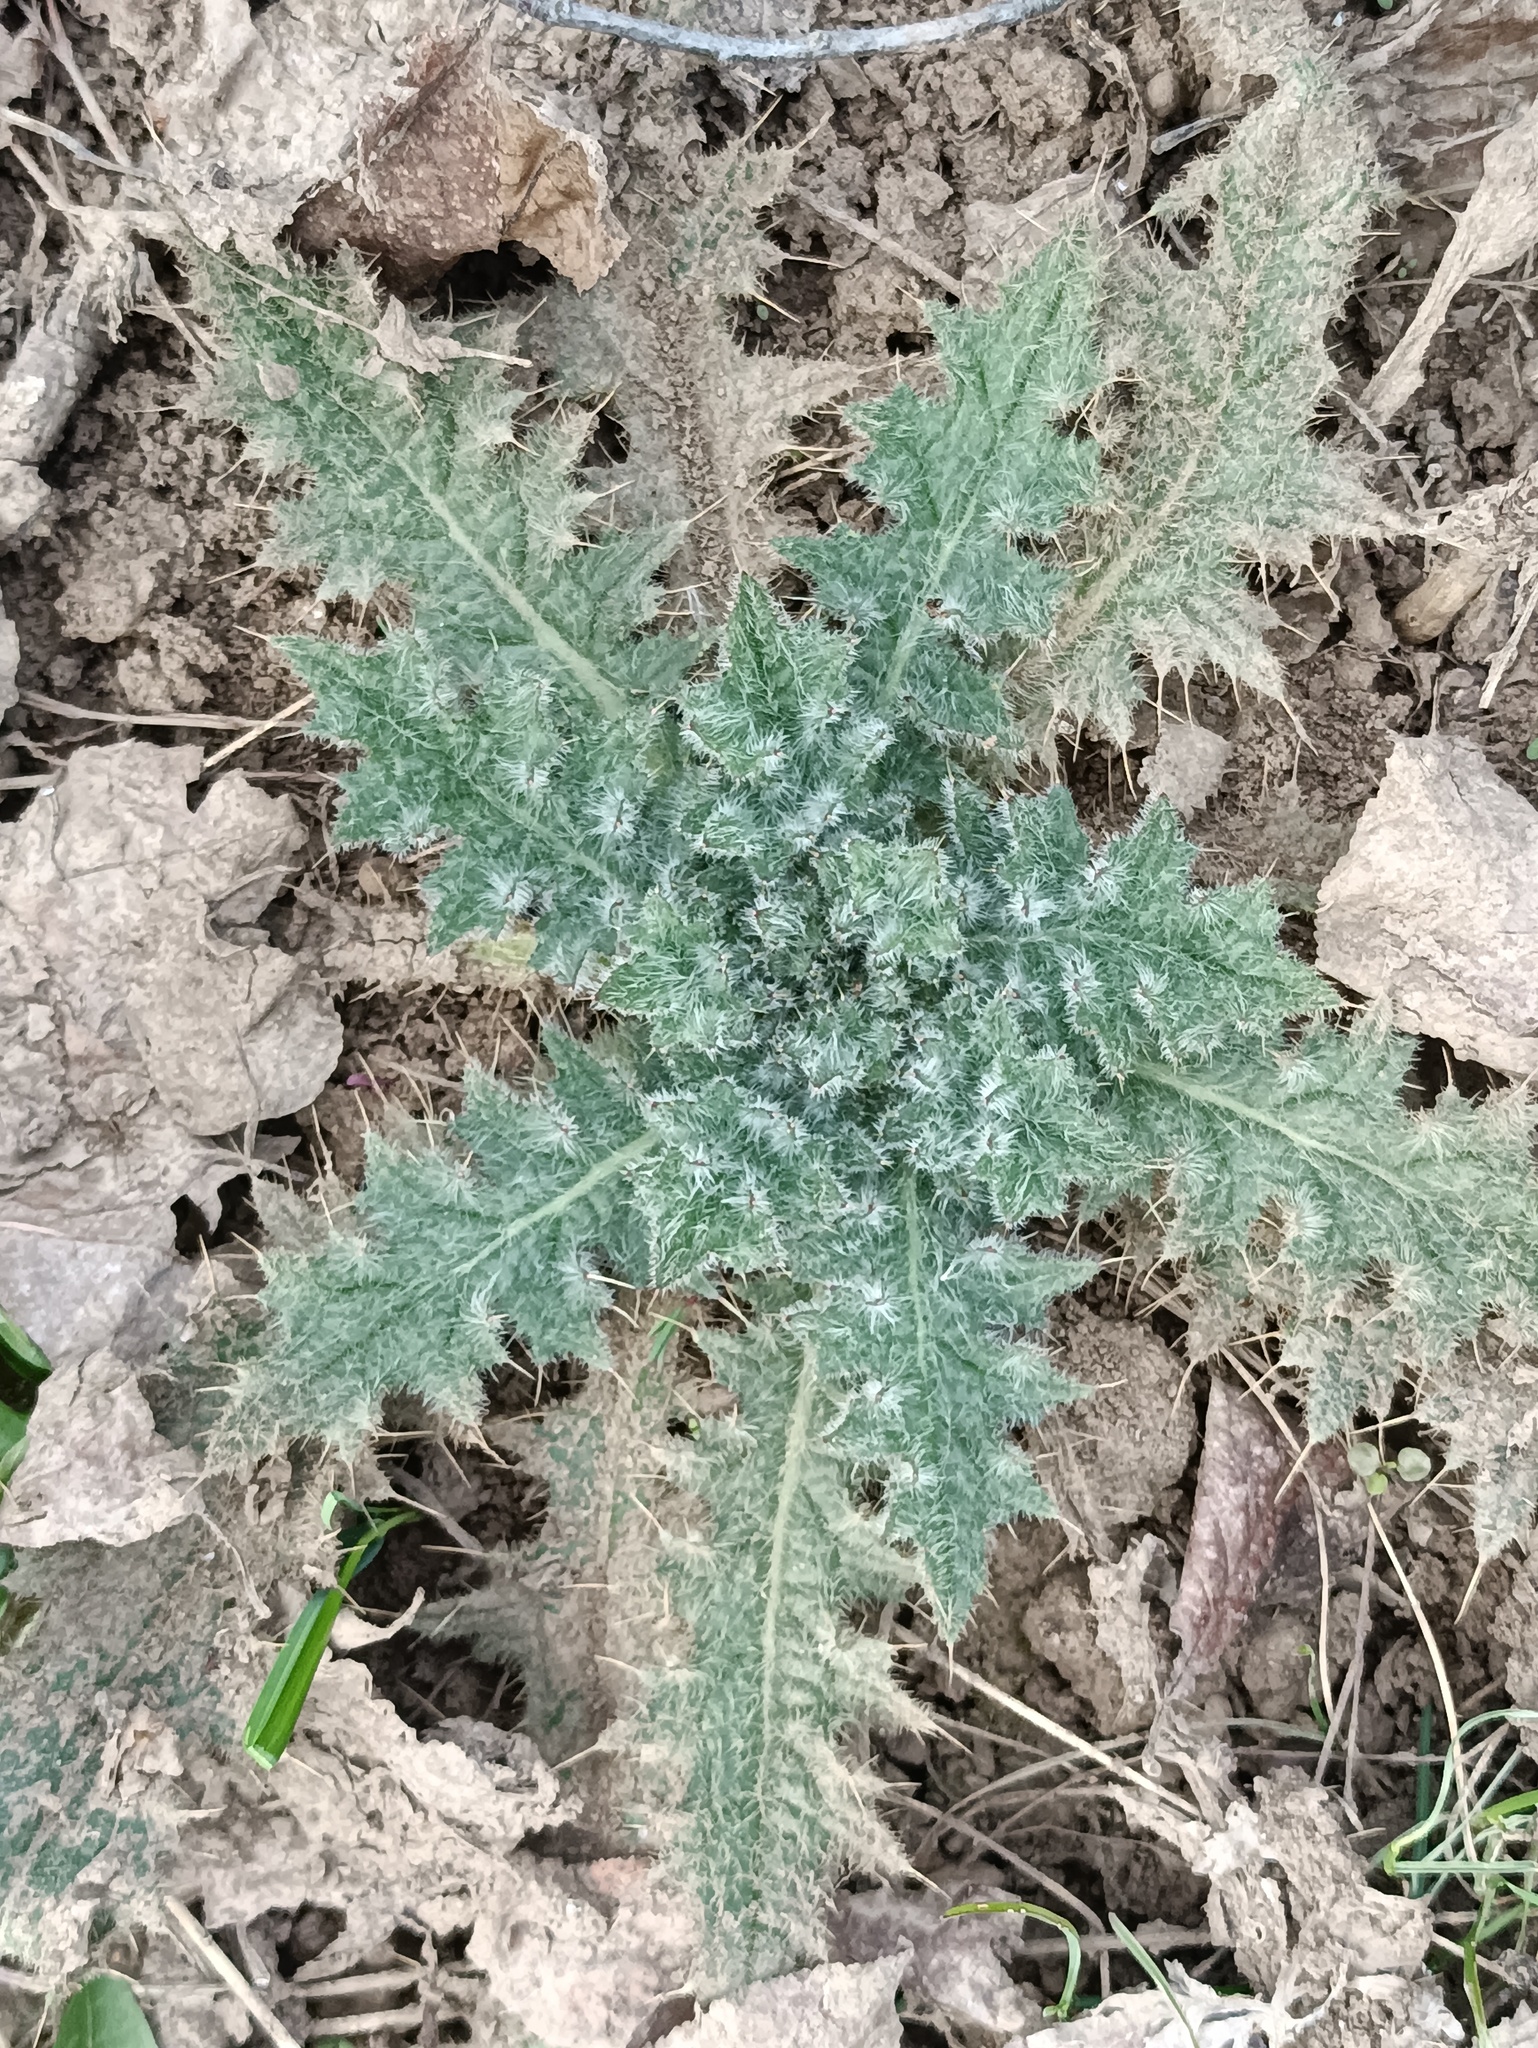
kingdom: Plantae
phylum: Tracheophyta
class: Magnoliopsida
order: Asterales
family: Asteraceae
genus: Cirsium
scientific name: Cirsium vulgare
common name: Bull thistle
